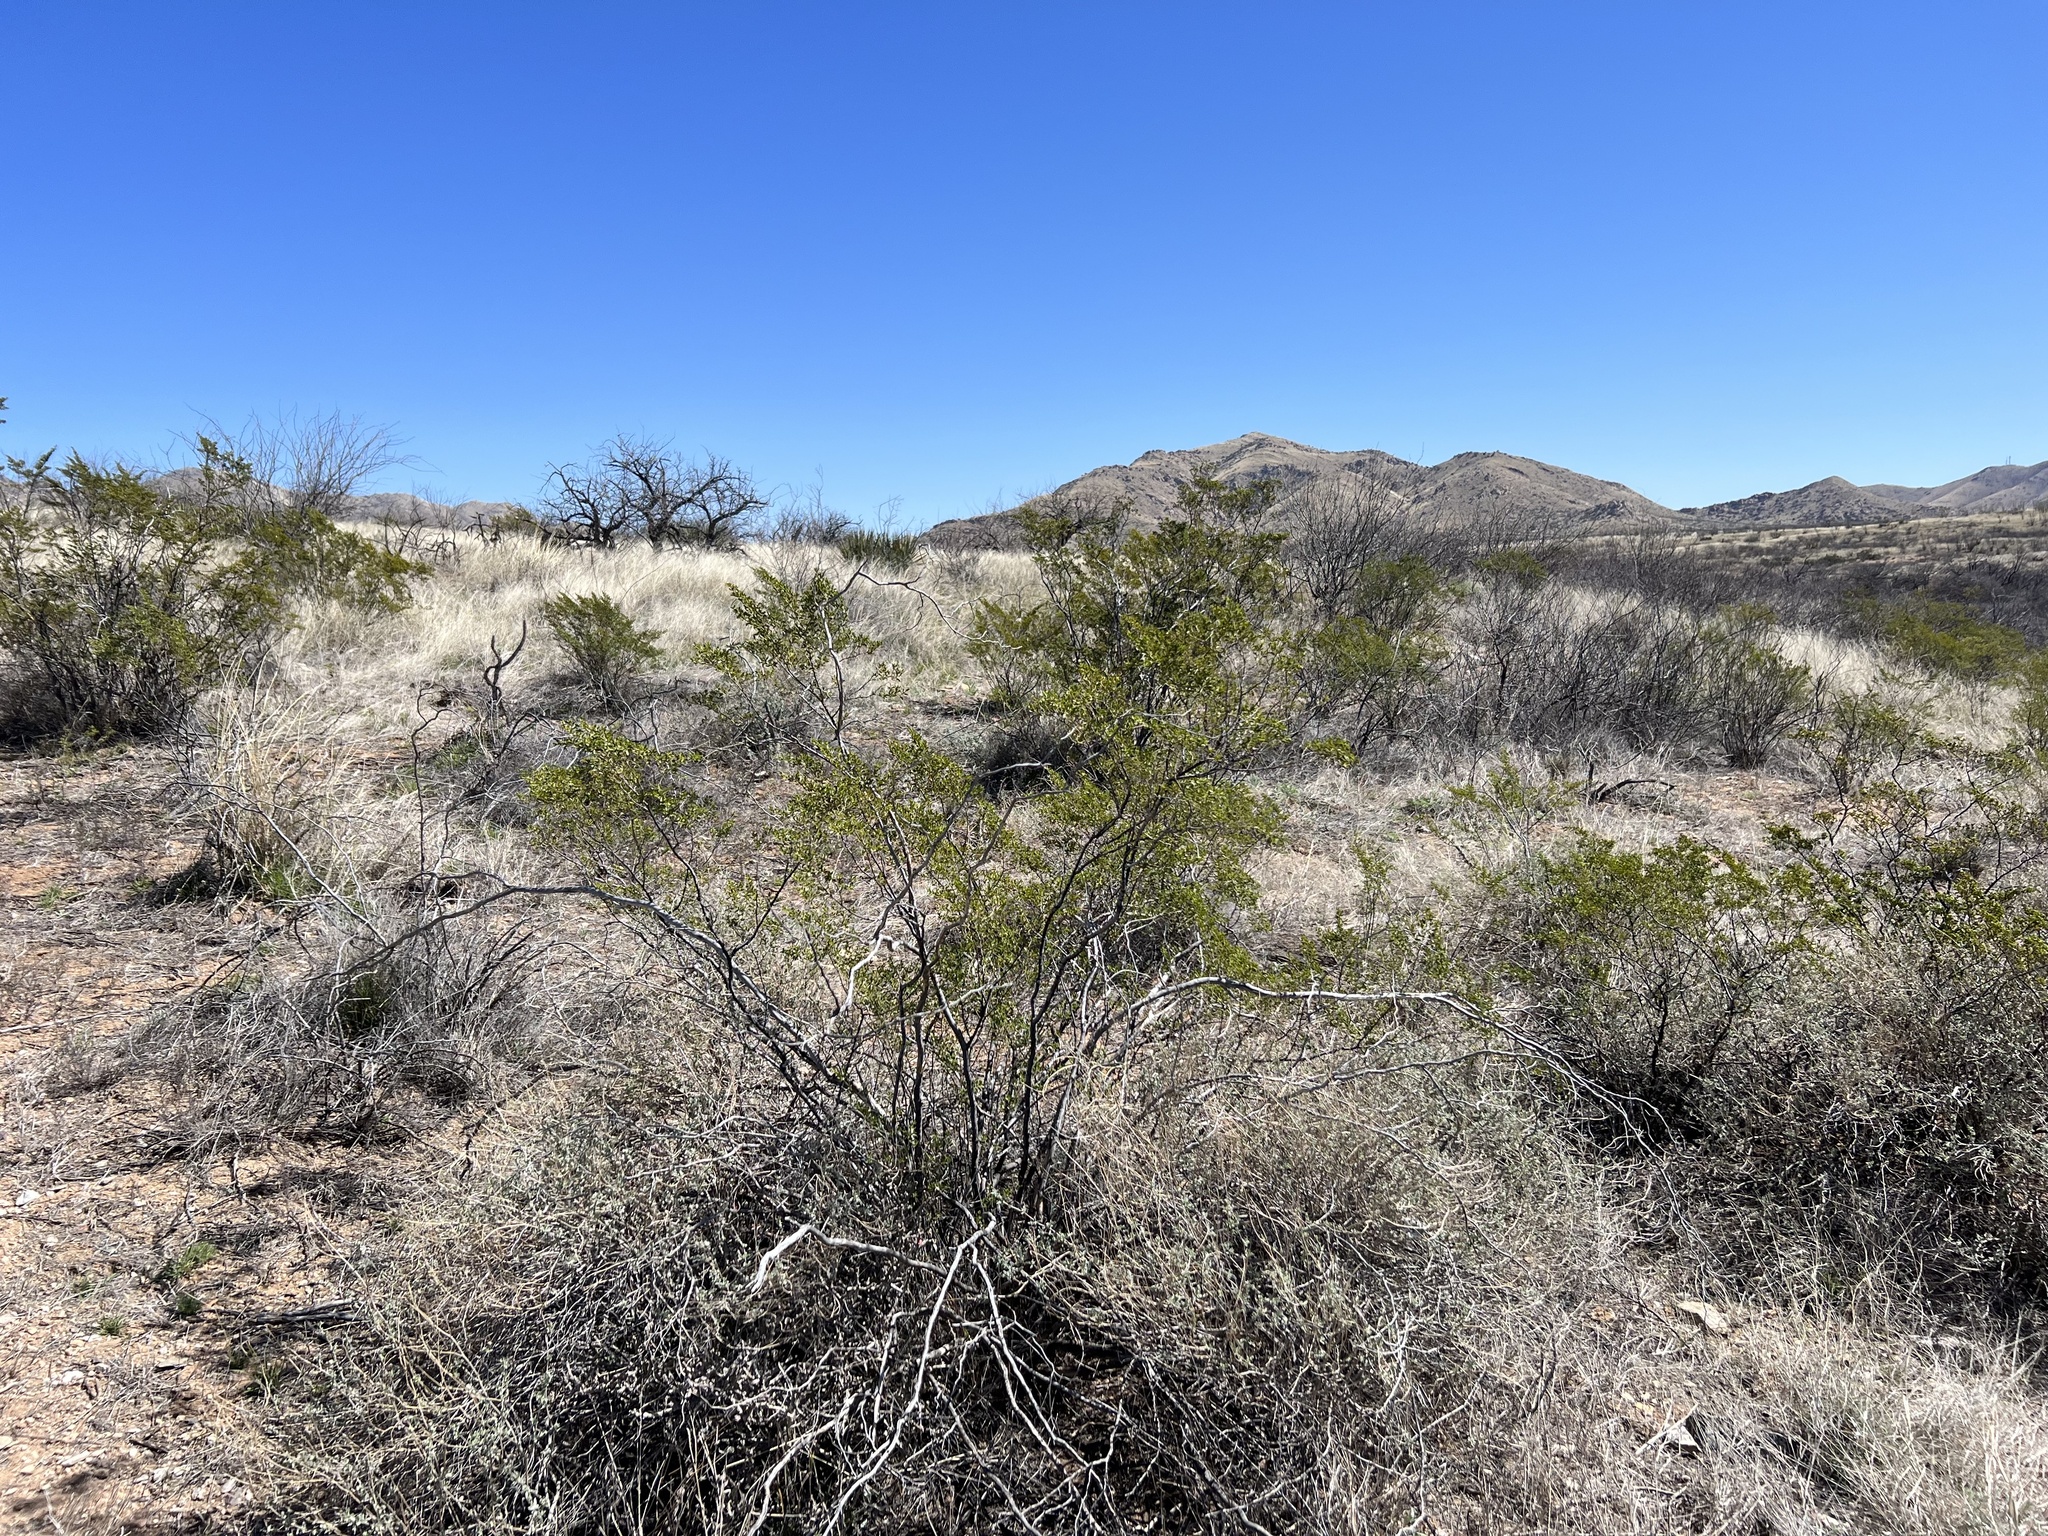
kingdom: Plantae
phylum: Tracheophyta
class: Magnoliopsida
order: Zygophyllales
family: Zygophyllaceae
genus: Larrea
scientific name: Larrea tridentata
